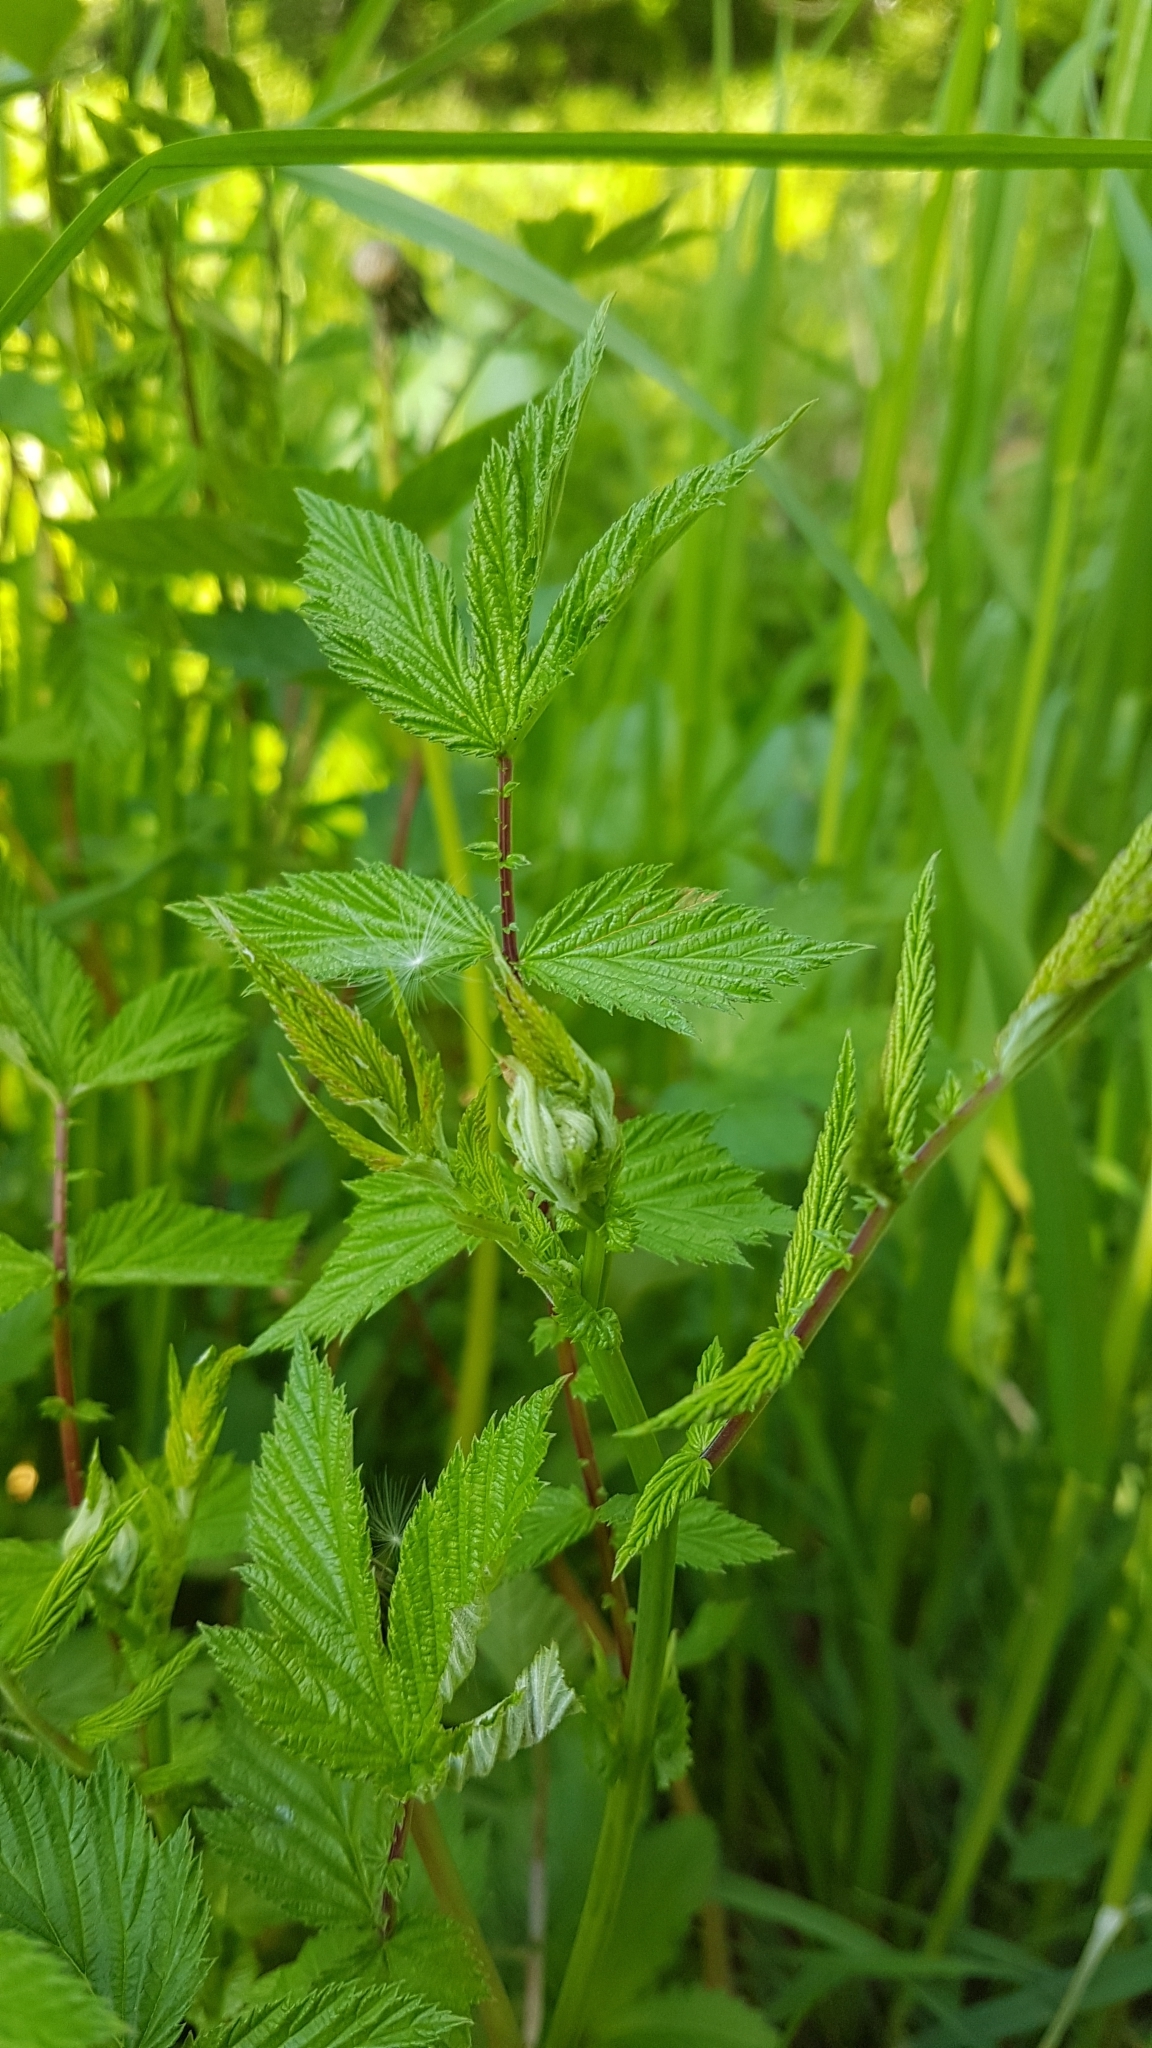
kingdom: Plantae
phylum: Tracheophyta
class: Magnoliopsida
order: Rosales
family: Rosaceae
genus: Filipendula
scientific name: Filipendula ulmaria
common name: Meadowsweet
